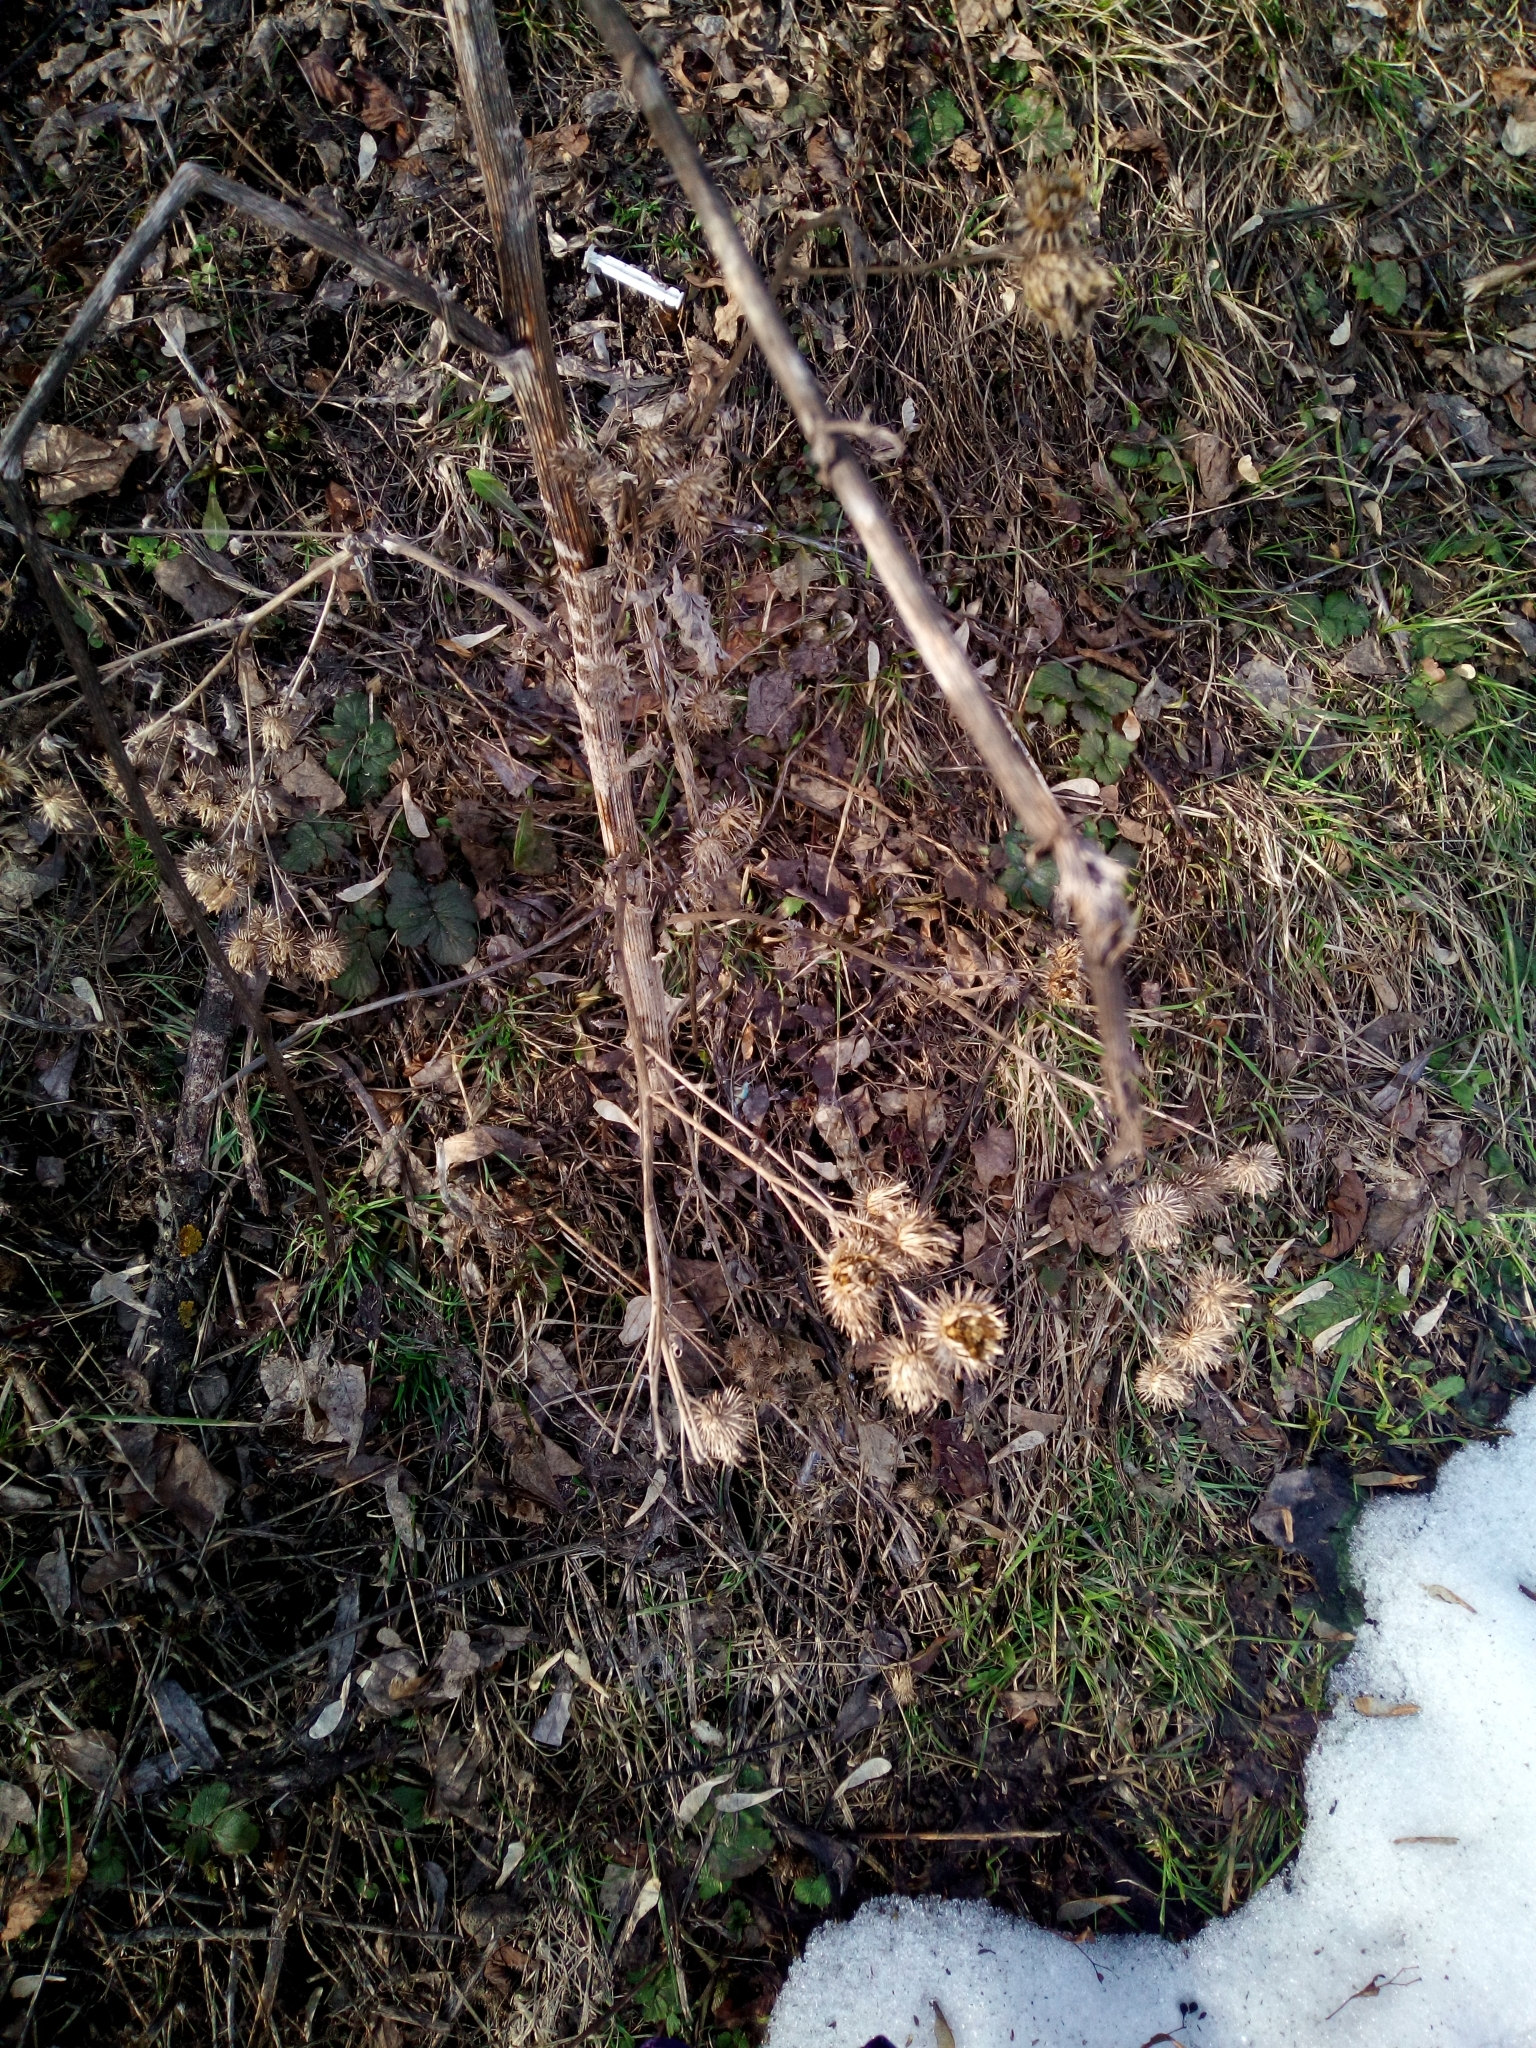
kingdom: Plantae
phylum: Tracheophyta
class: Magnoliopsida
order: Asterales
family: Asteraceae
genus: Arctium
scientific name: Arctium tomentosum
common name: Woolly burdock
